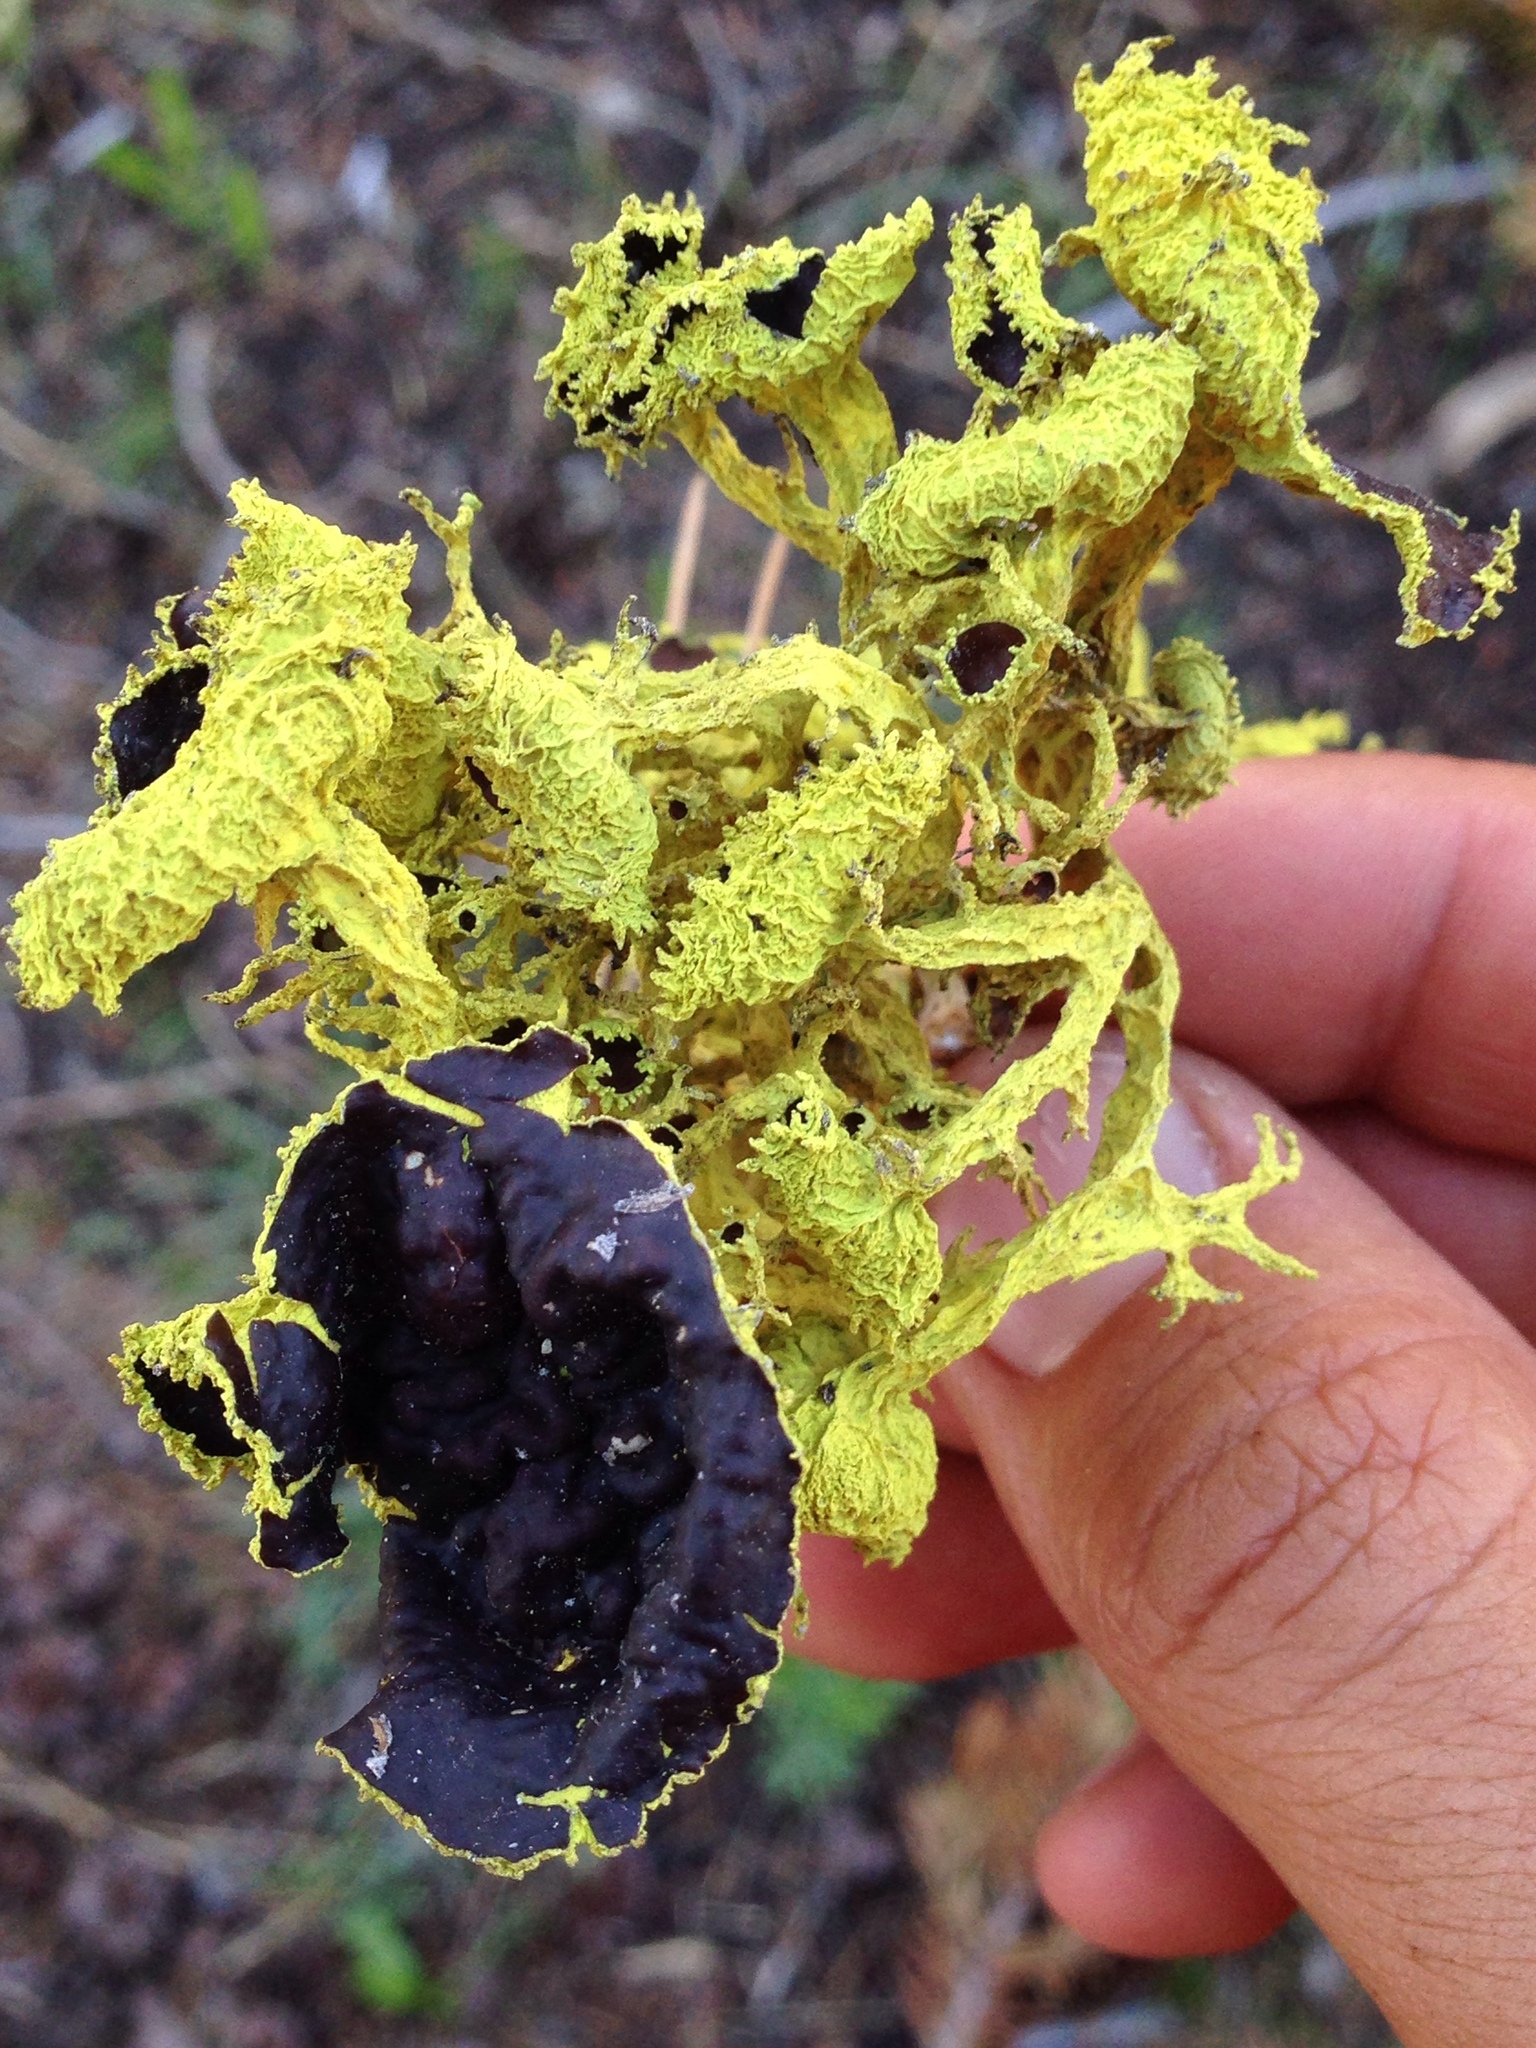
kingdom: Fungi
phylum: Ascomycota
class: Lecanoromycetes
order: Lecanorales
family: Parmeliaceae
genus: Letharia
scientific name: Letharia columbiana
